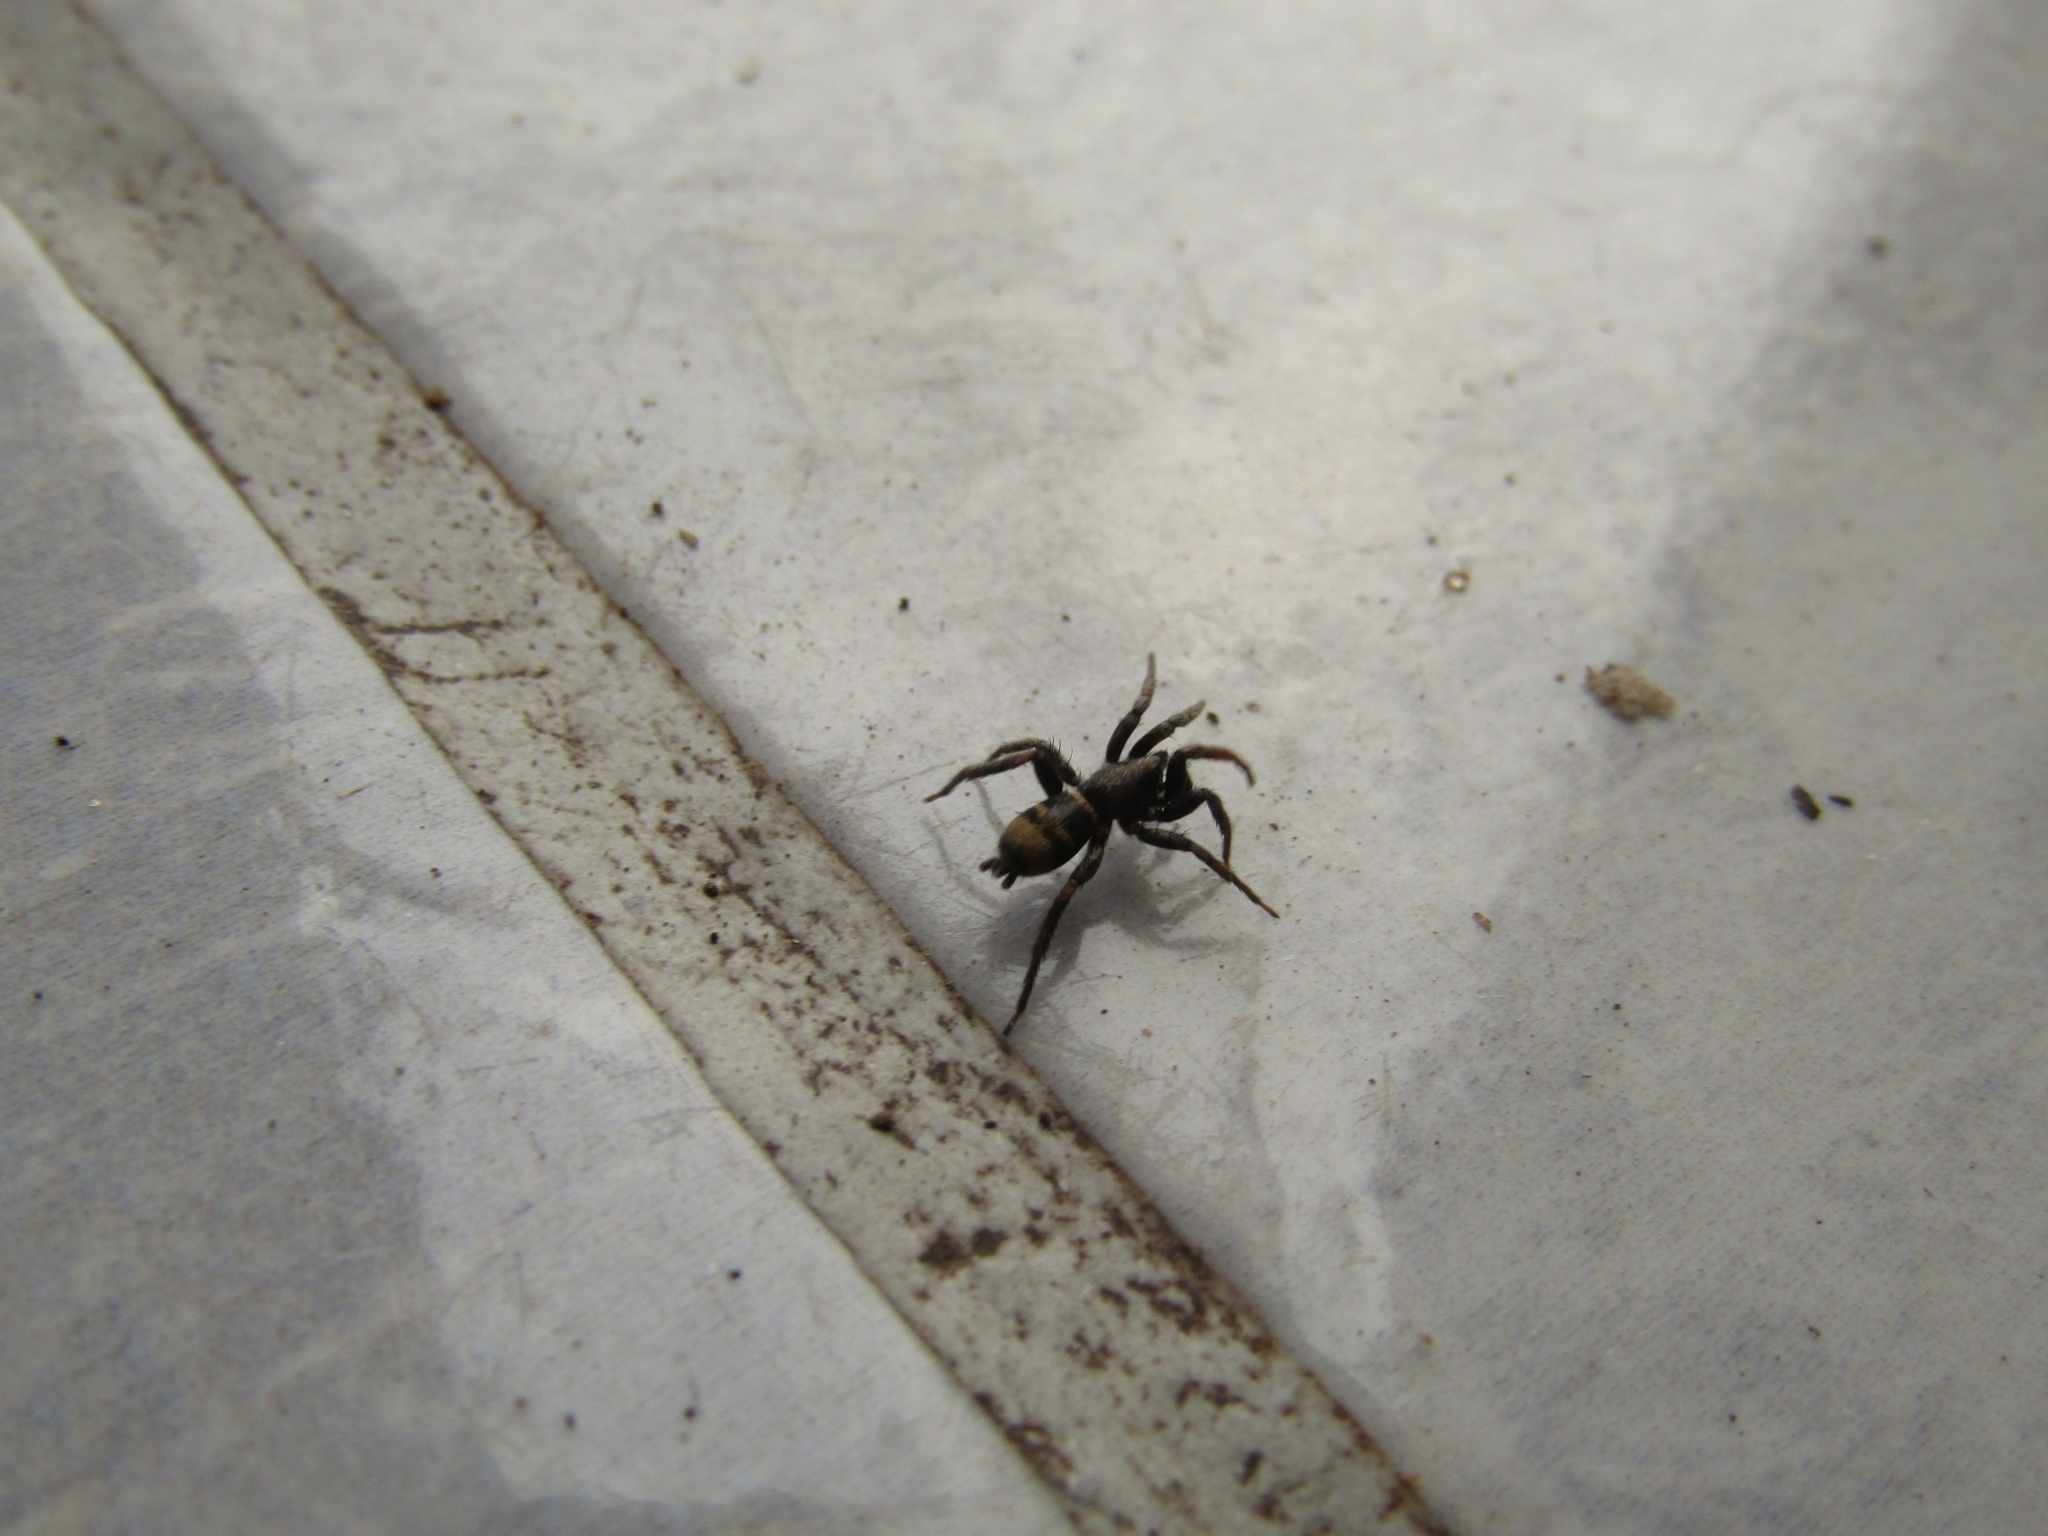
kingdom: Animalia
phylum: Arthropoda
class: Arachnida
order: Araneae
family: Gnaphosidae
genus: Latonigena
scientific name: Latonigena auricomis
